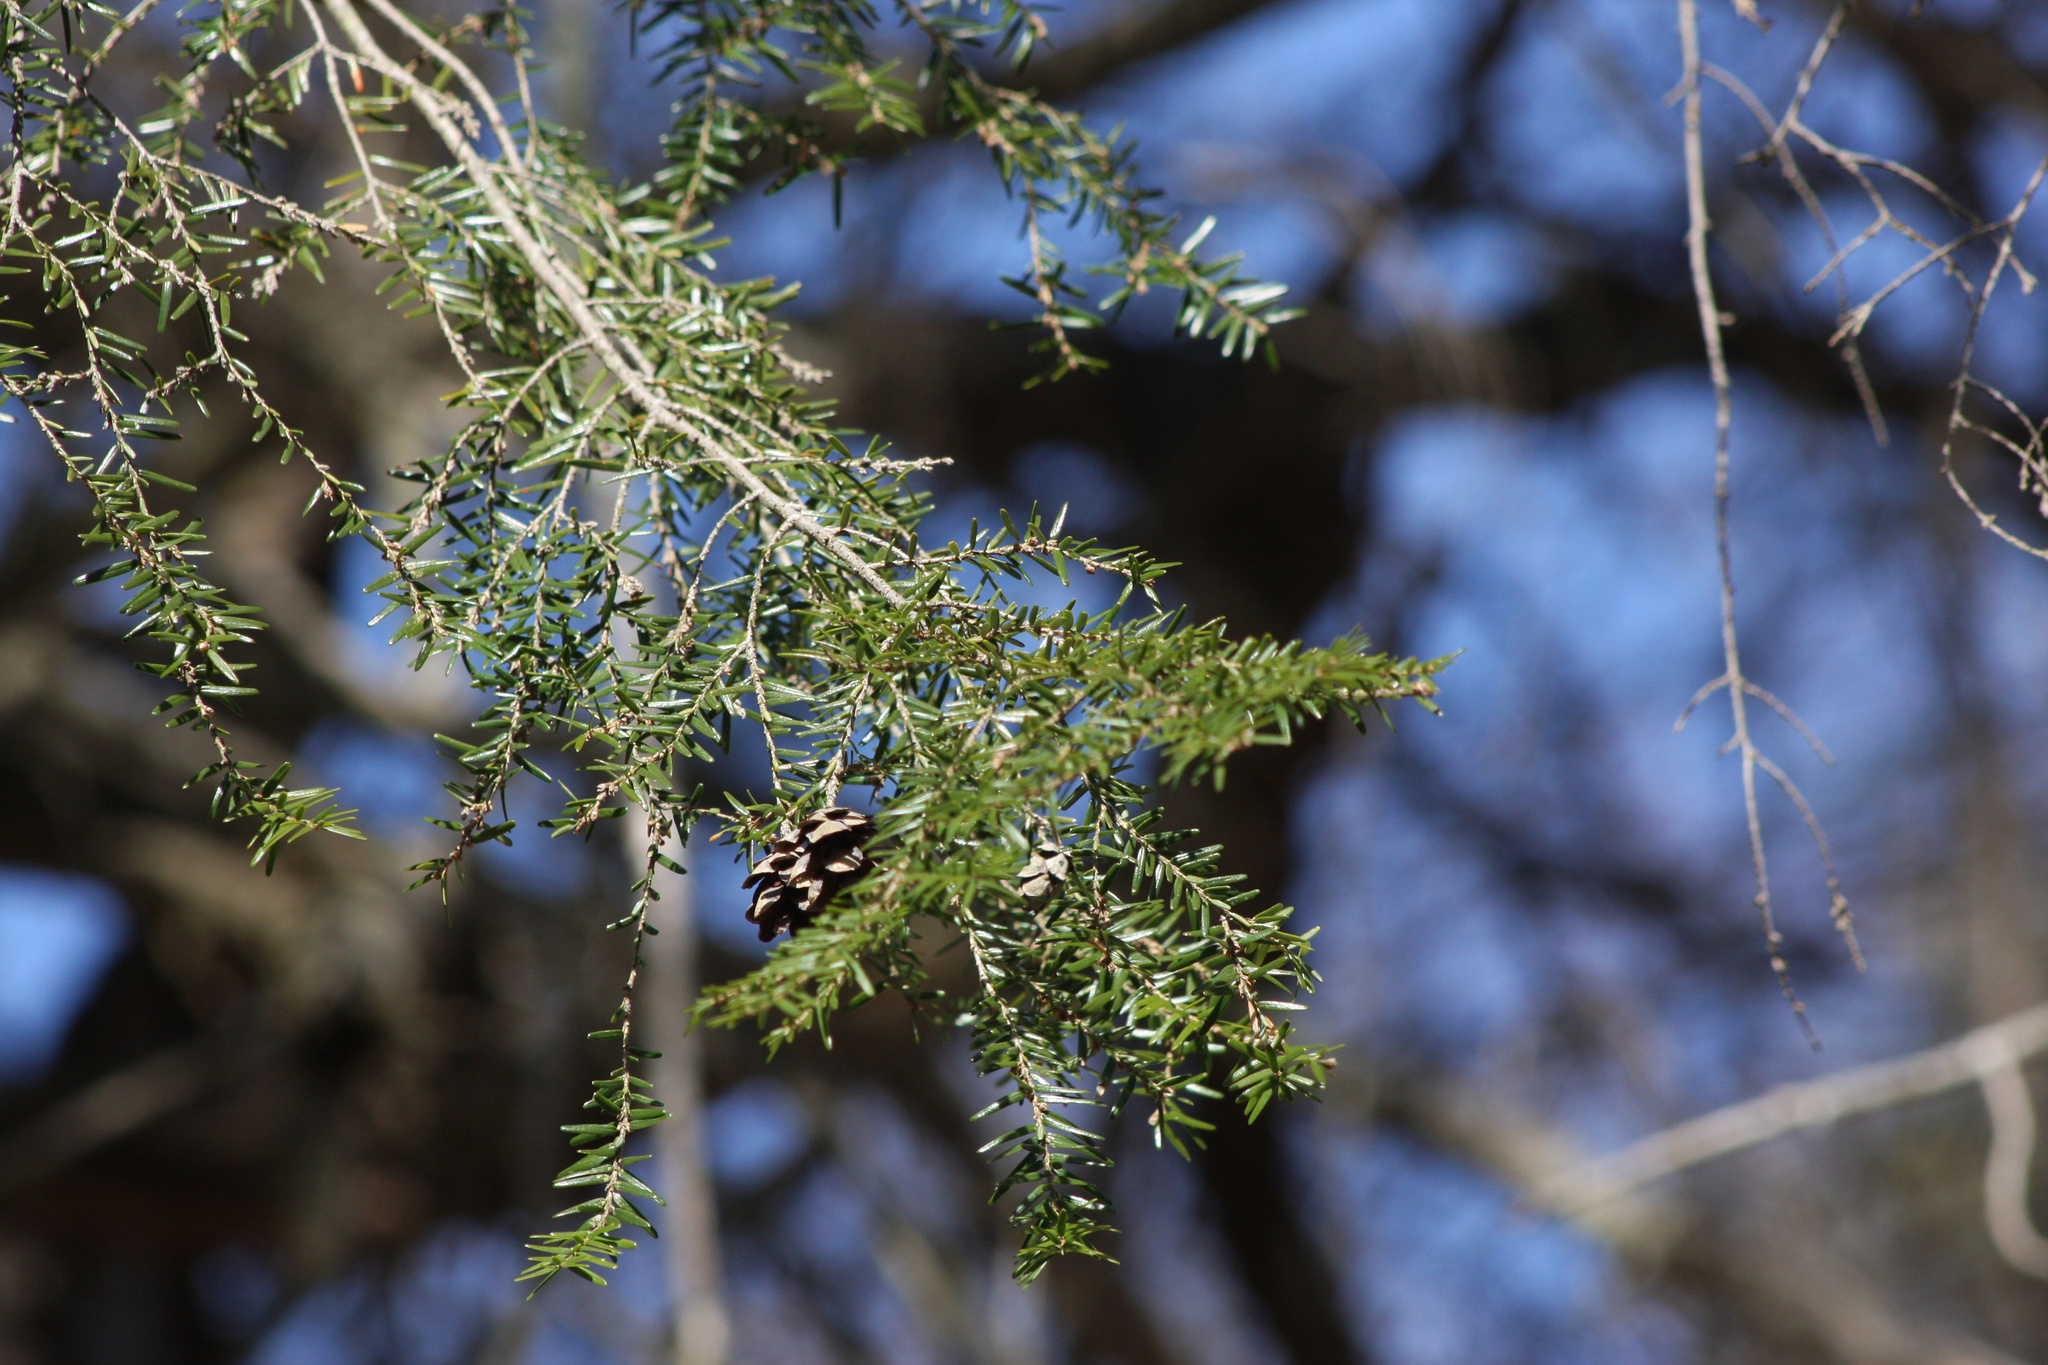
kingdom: Plantae
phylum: Tracheophyta
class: Pinopsida
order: Pinales
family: Pinaceae
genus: Tsuga
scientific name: Tsuga canadensis
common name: Eastern hemlock
